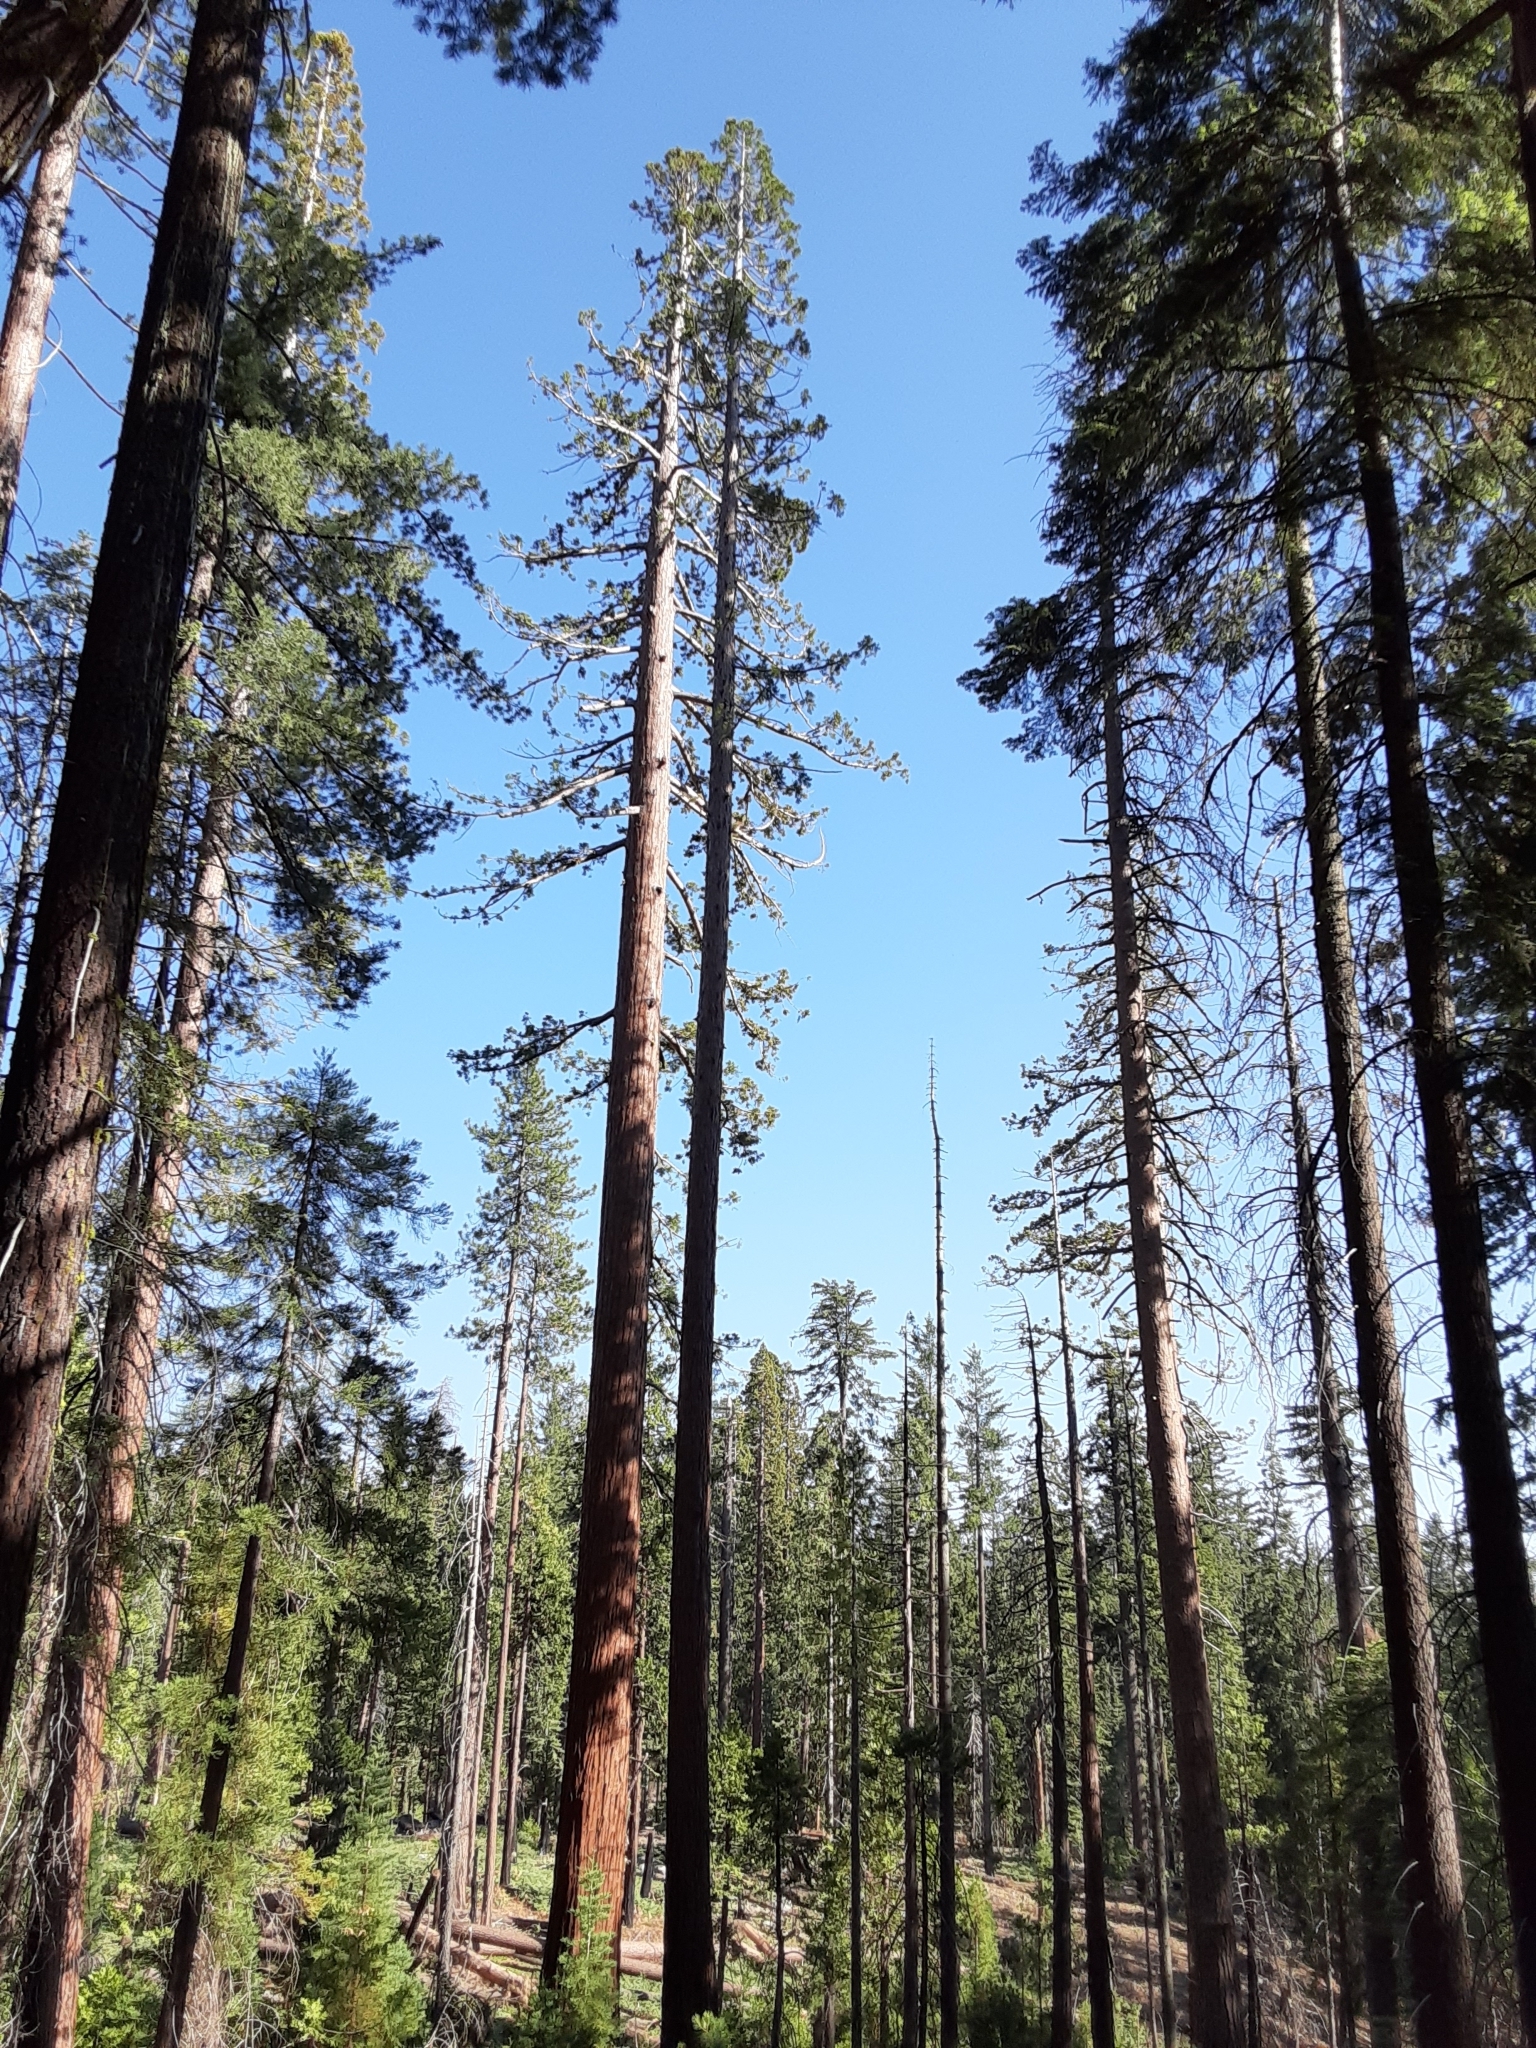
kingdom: Plantae
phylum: Tracheophyta
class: Pinopsida
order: Pinales
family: Cupressaceae
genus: Sequoiadendron
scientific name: Sequoiadendron giganteum
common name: Wellingtonia
